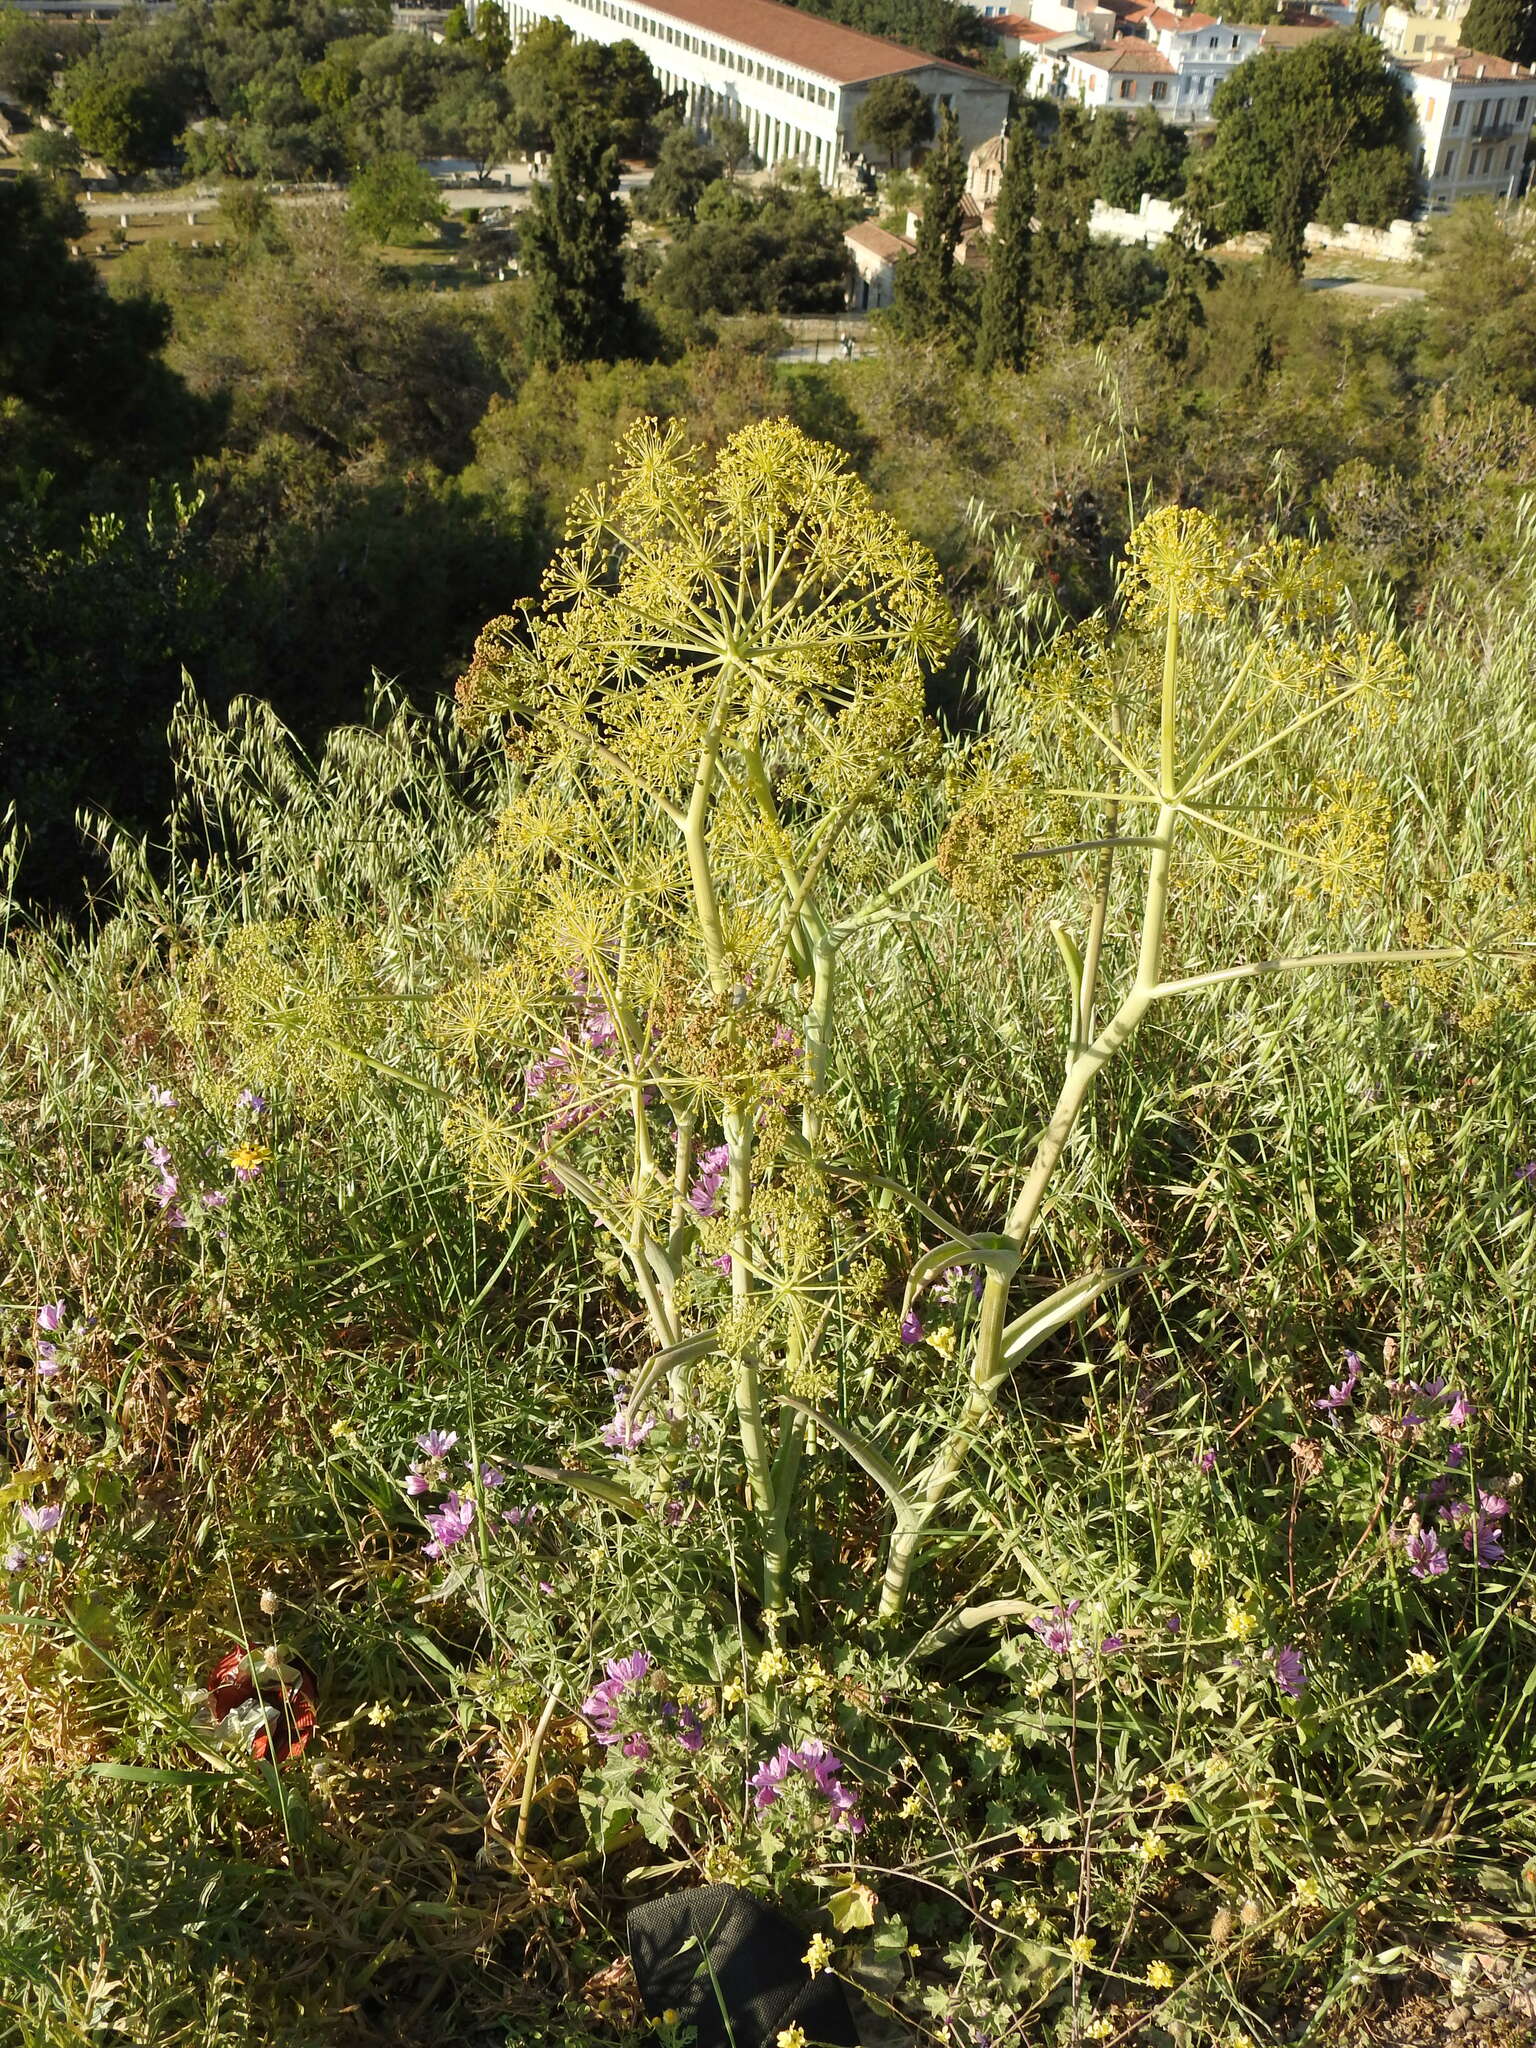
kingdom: Plantae
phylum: Tracheophyta
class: Magnoliopsida
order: Apiales
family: Apiaceae
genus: Thapsia
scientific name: Thapsia garganica
